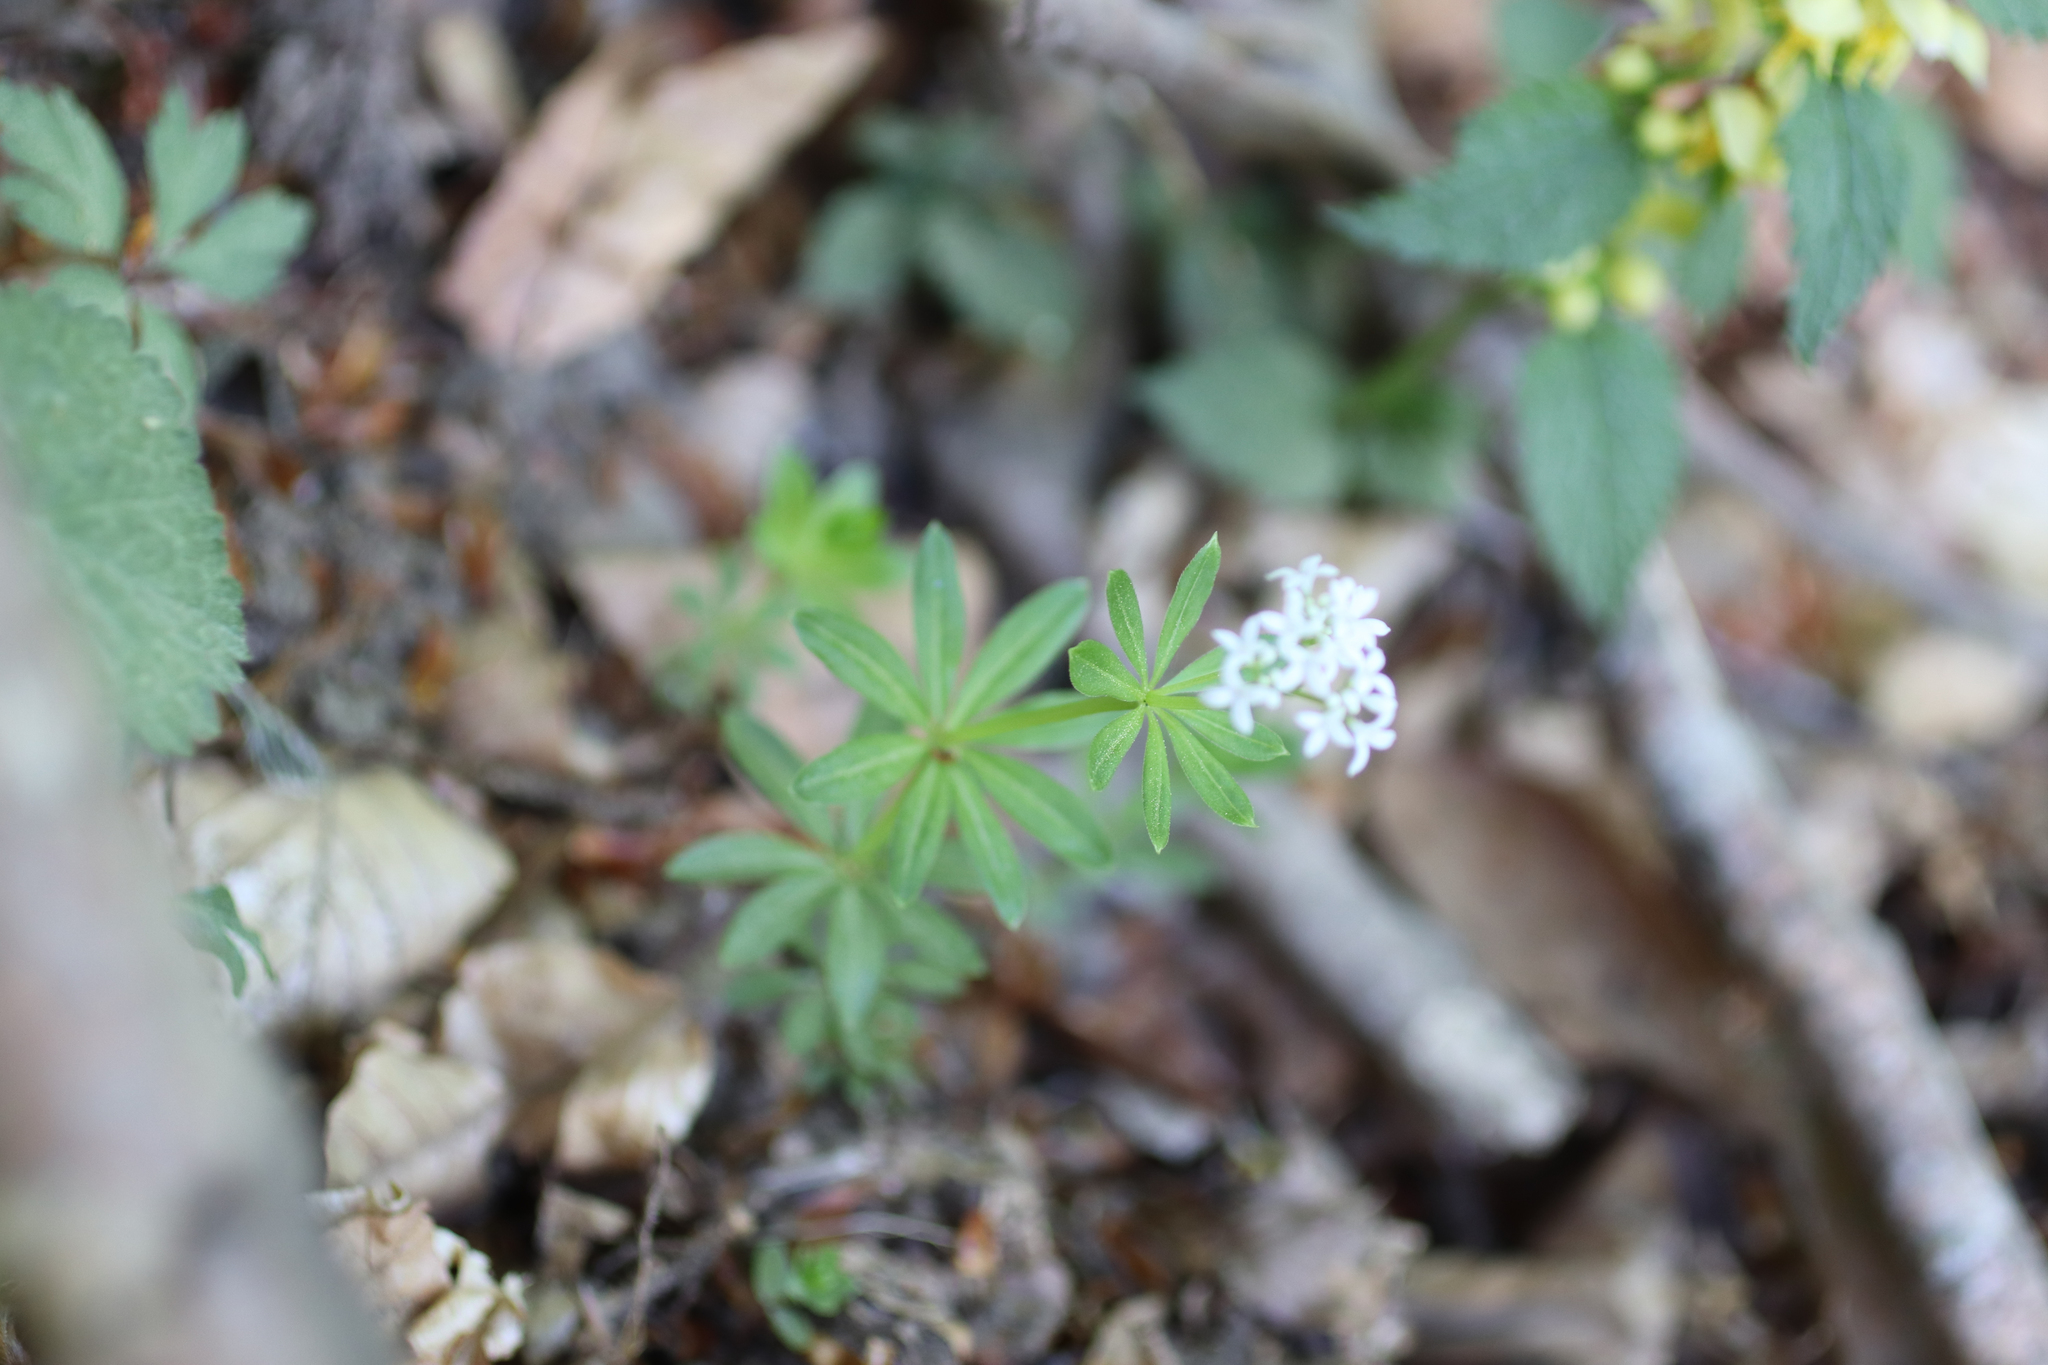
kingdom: Plantae
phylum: Tracheophyta
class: Magnoliopsida
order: Gentianales
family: Rubiaceae
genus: Galium
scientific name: Galium odoratum
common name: Sweet woodruff
